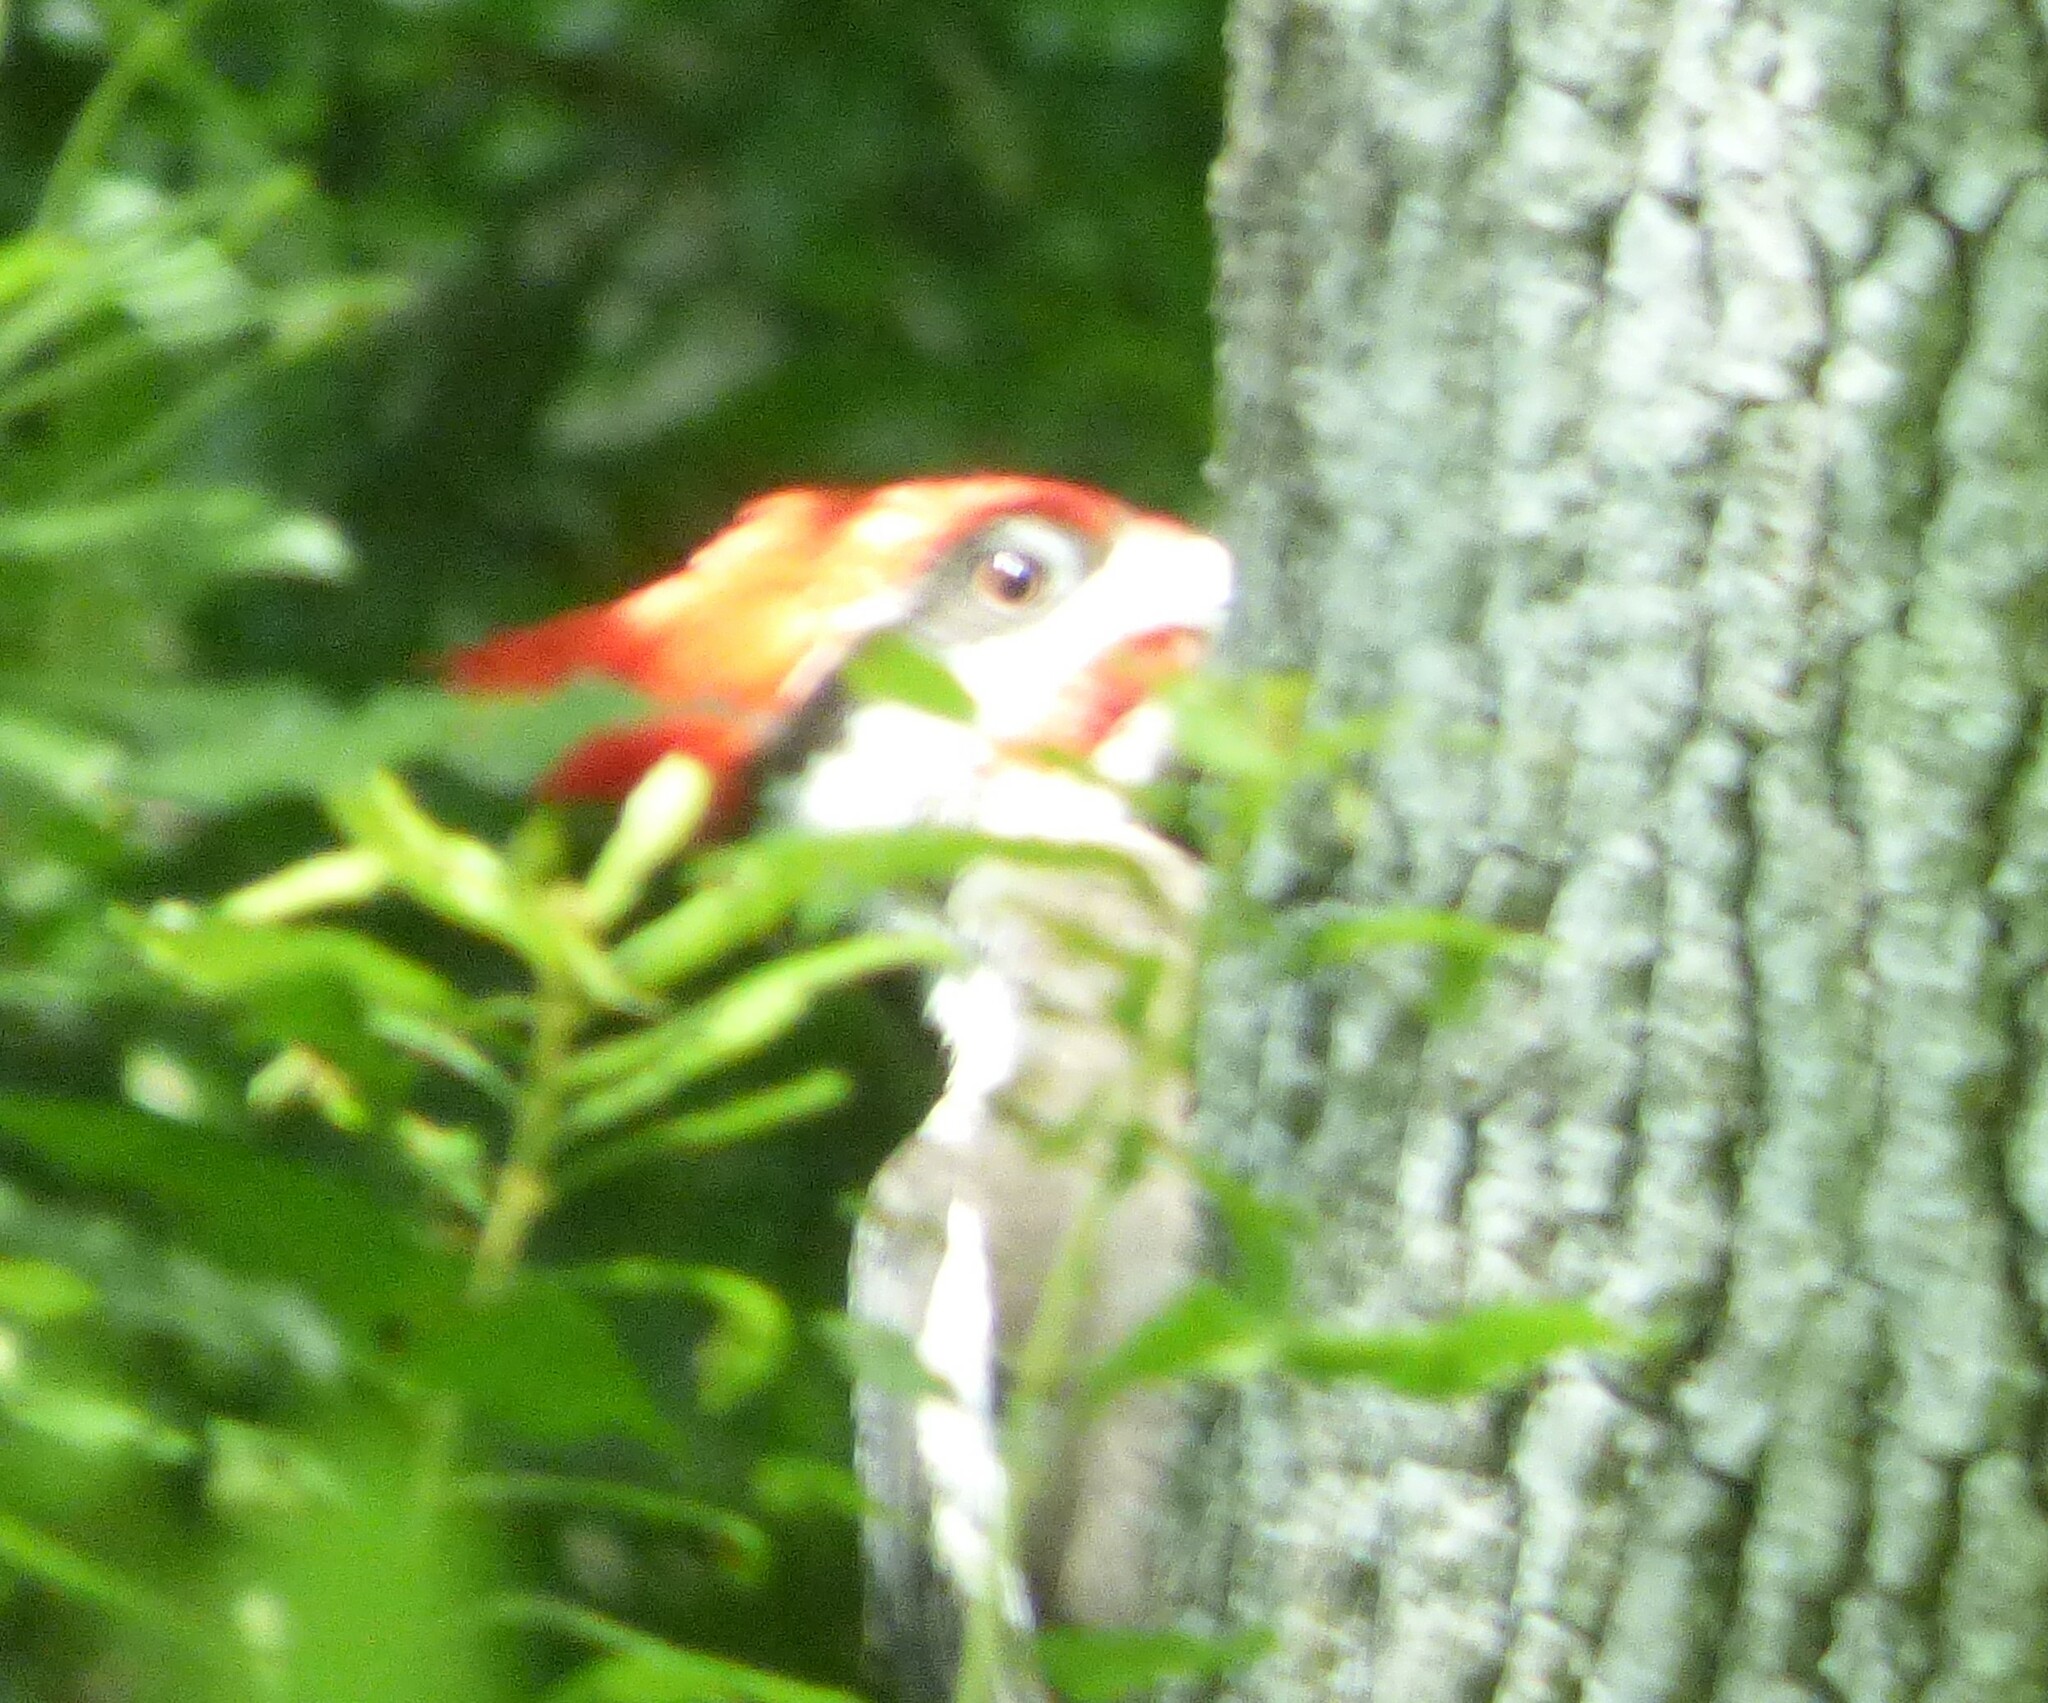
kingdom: Animalia
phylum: Chordata
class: Aves
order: Piciformes
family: Picidae
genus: Dryocopus
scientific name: Dryocopus pileatus
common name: Pileated woodpecker
